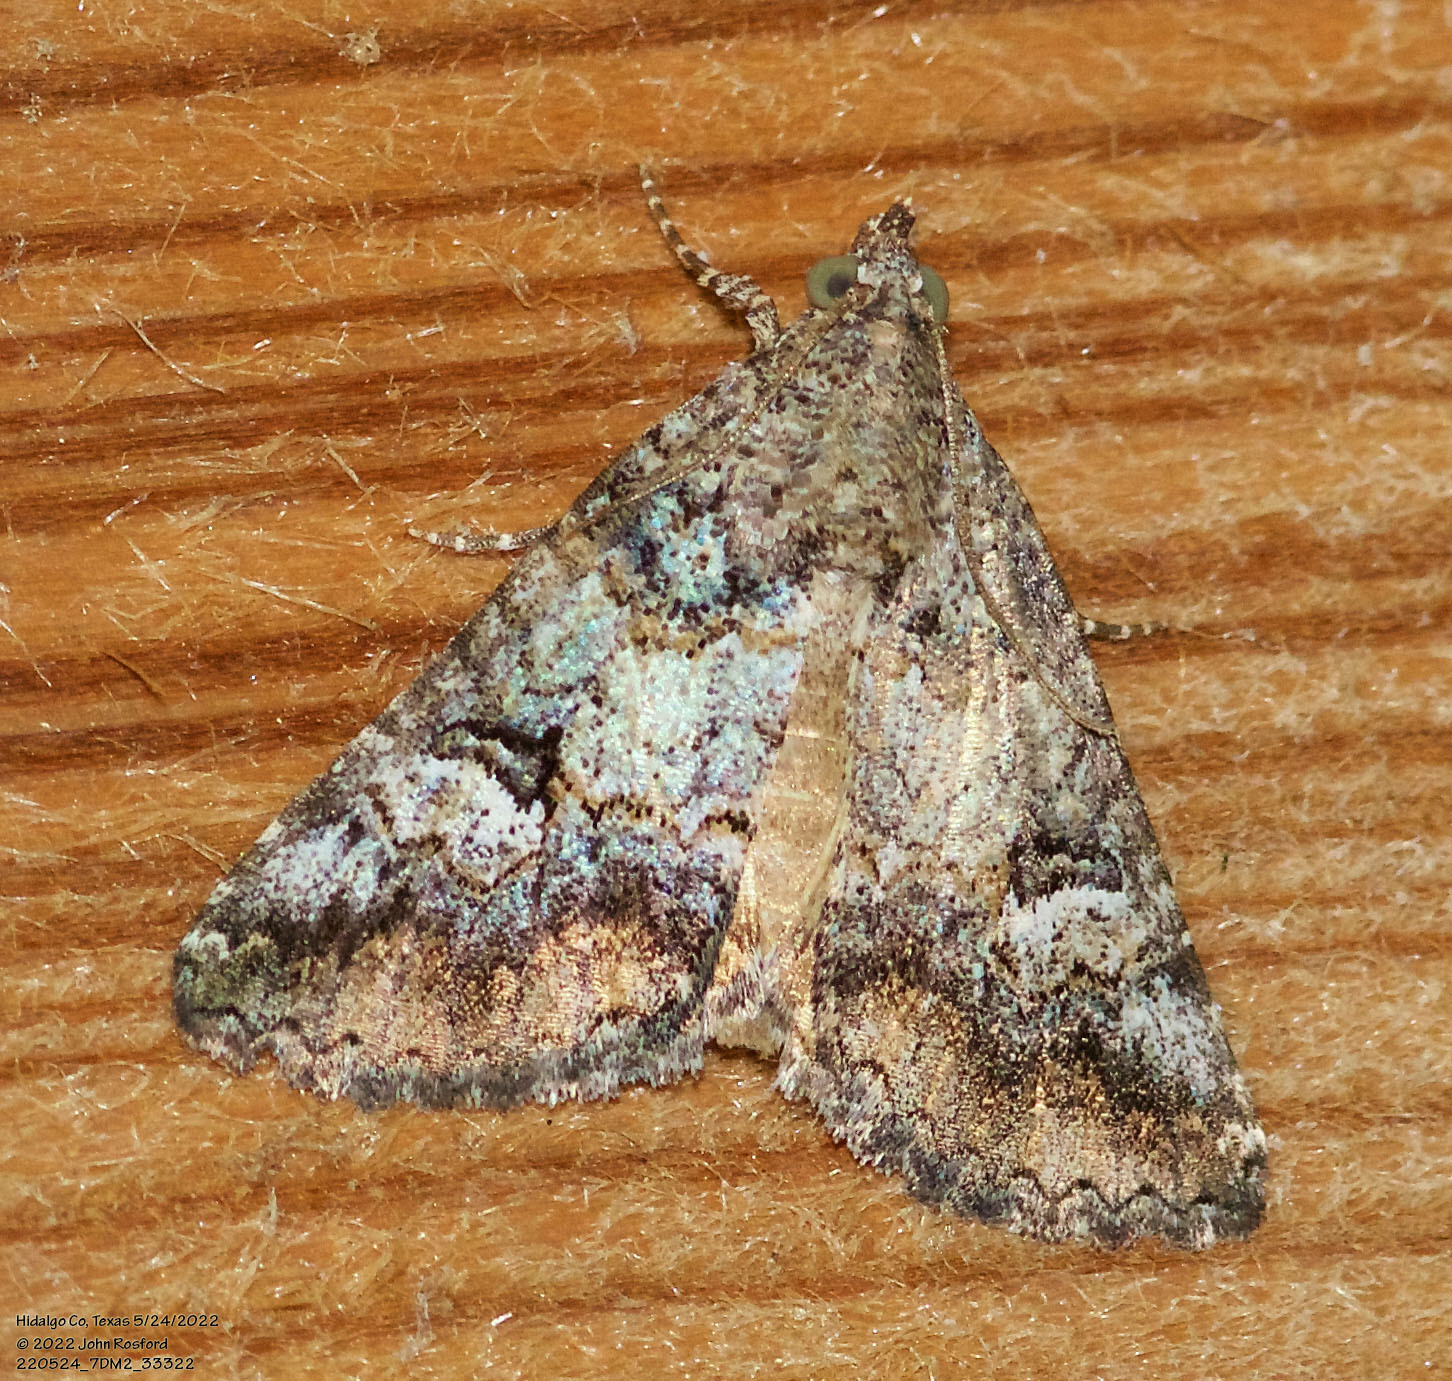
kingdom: Animalia
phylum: Arthropoda
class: Insecta
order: Lepidoptera
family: Erebidae
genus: Eubolina
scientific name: Eubolina impartialis
